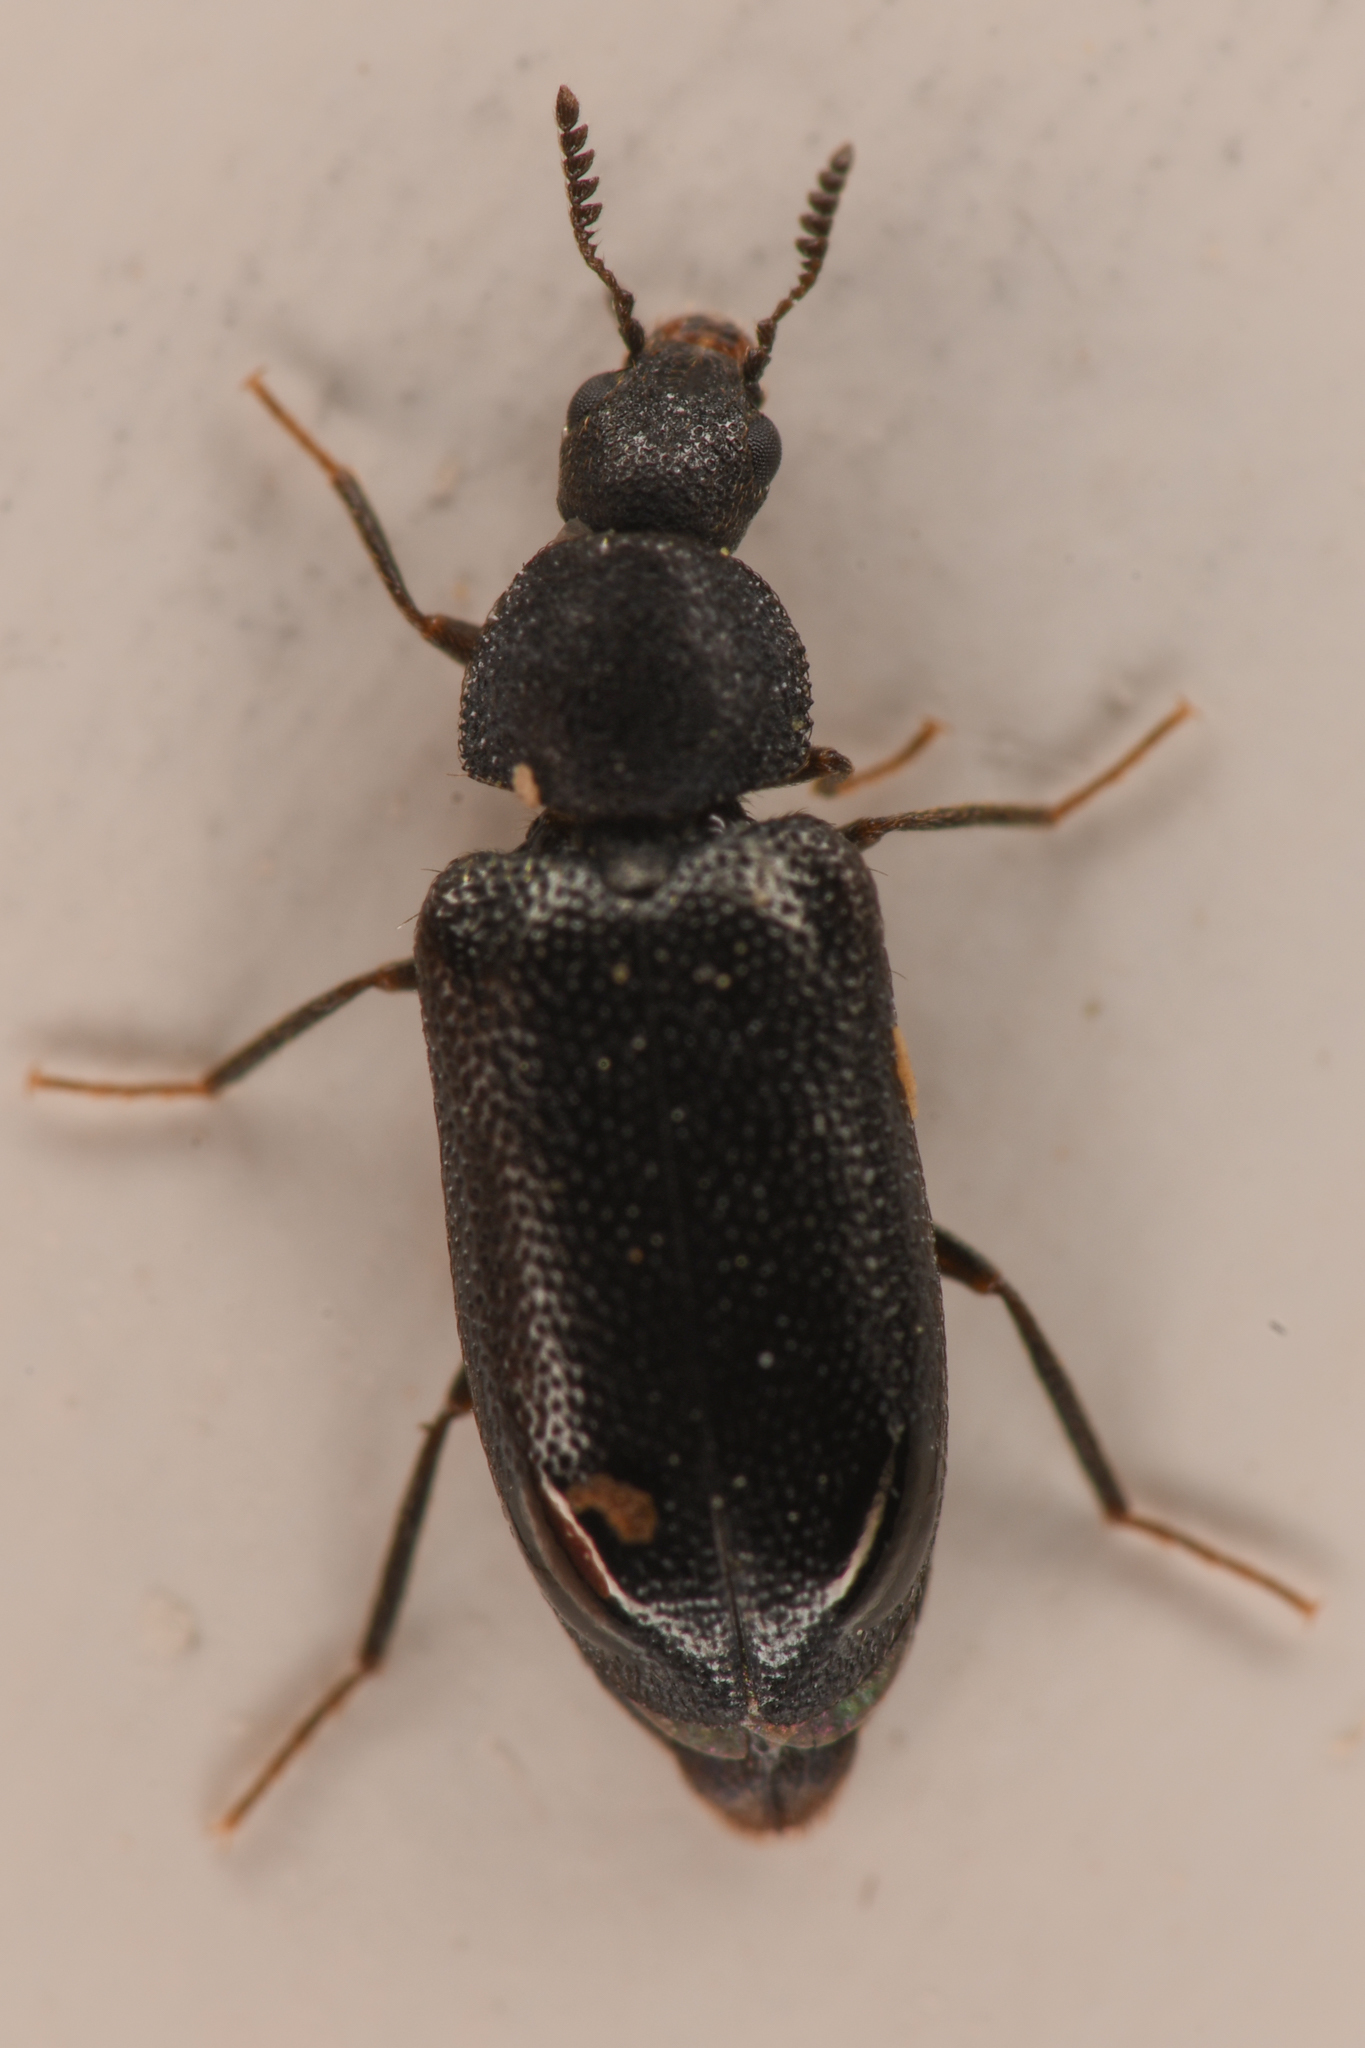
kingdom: Animalia
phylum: Arthropoda
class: Insecta
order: Coleoptera
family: Melyridae
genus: Semijulistus
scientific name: Semijulistus ater
